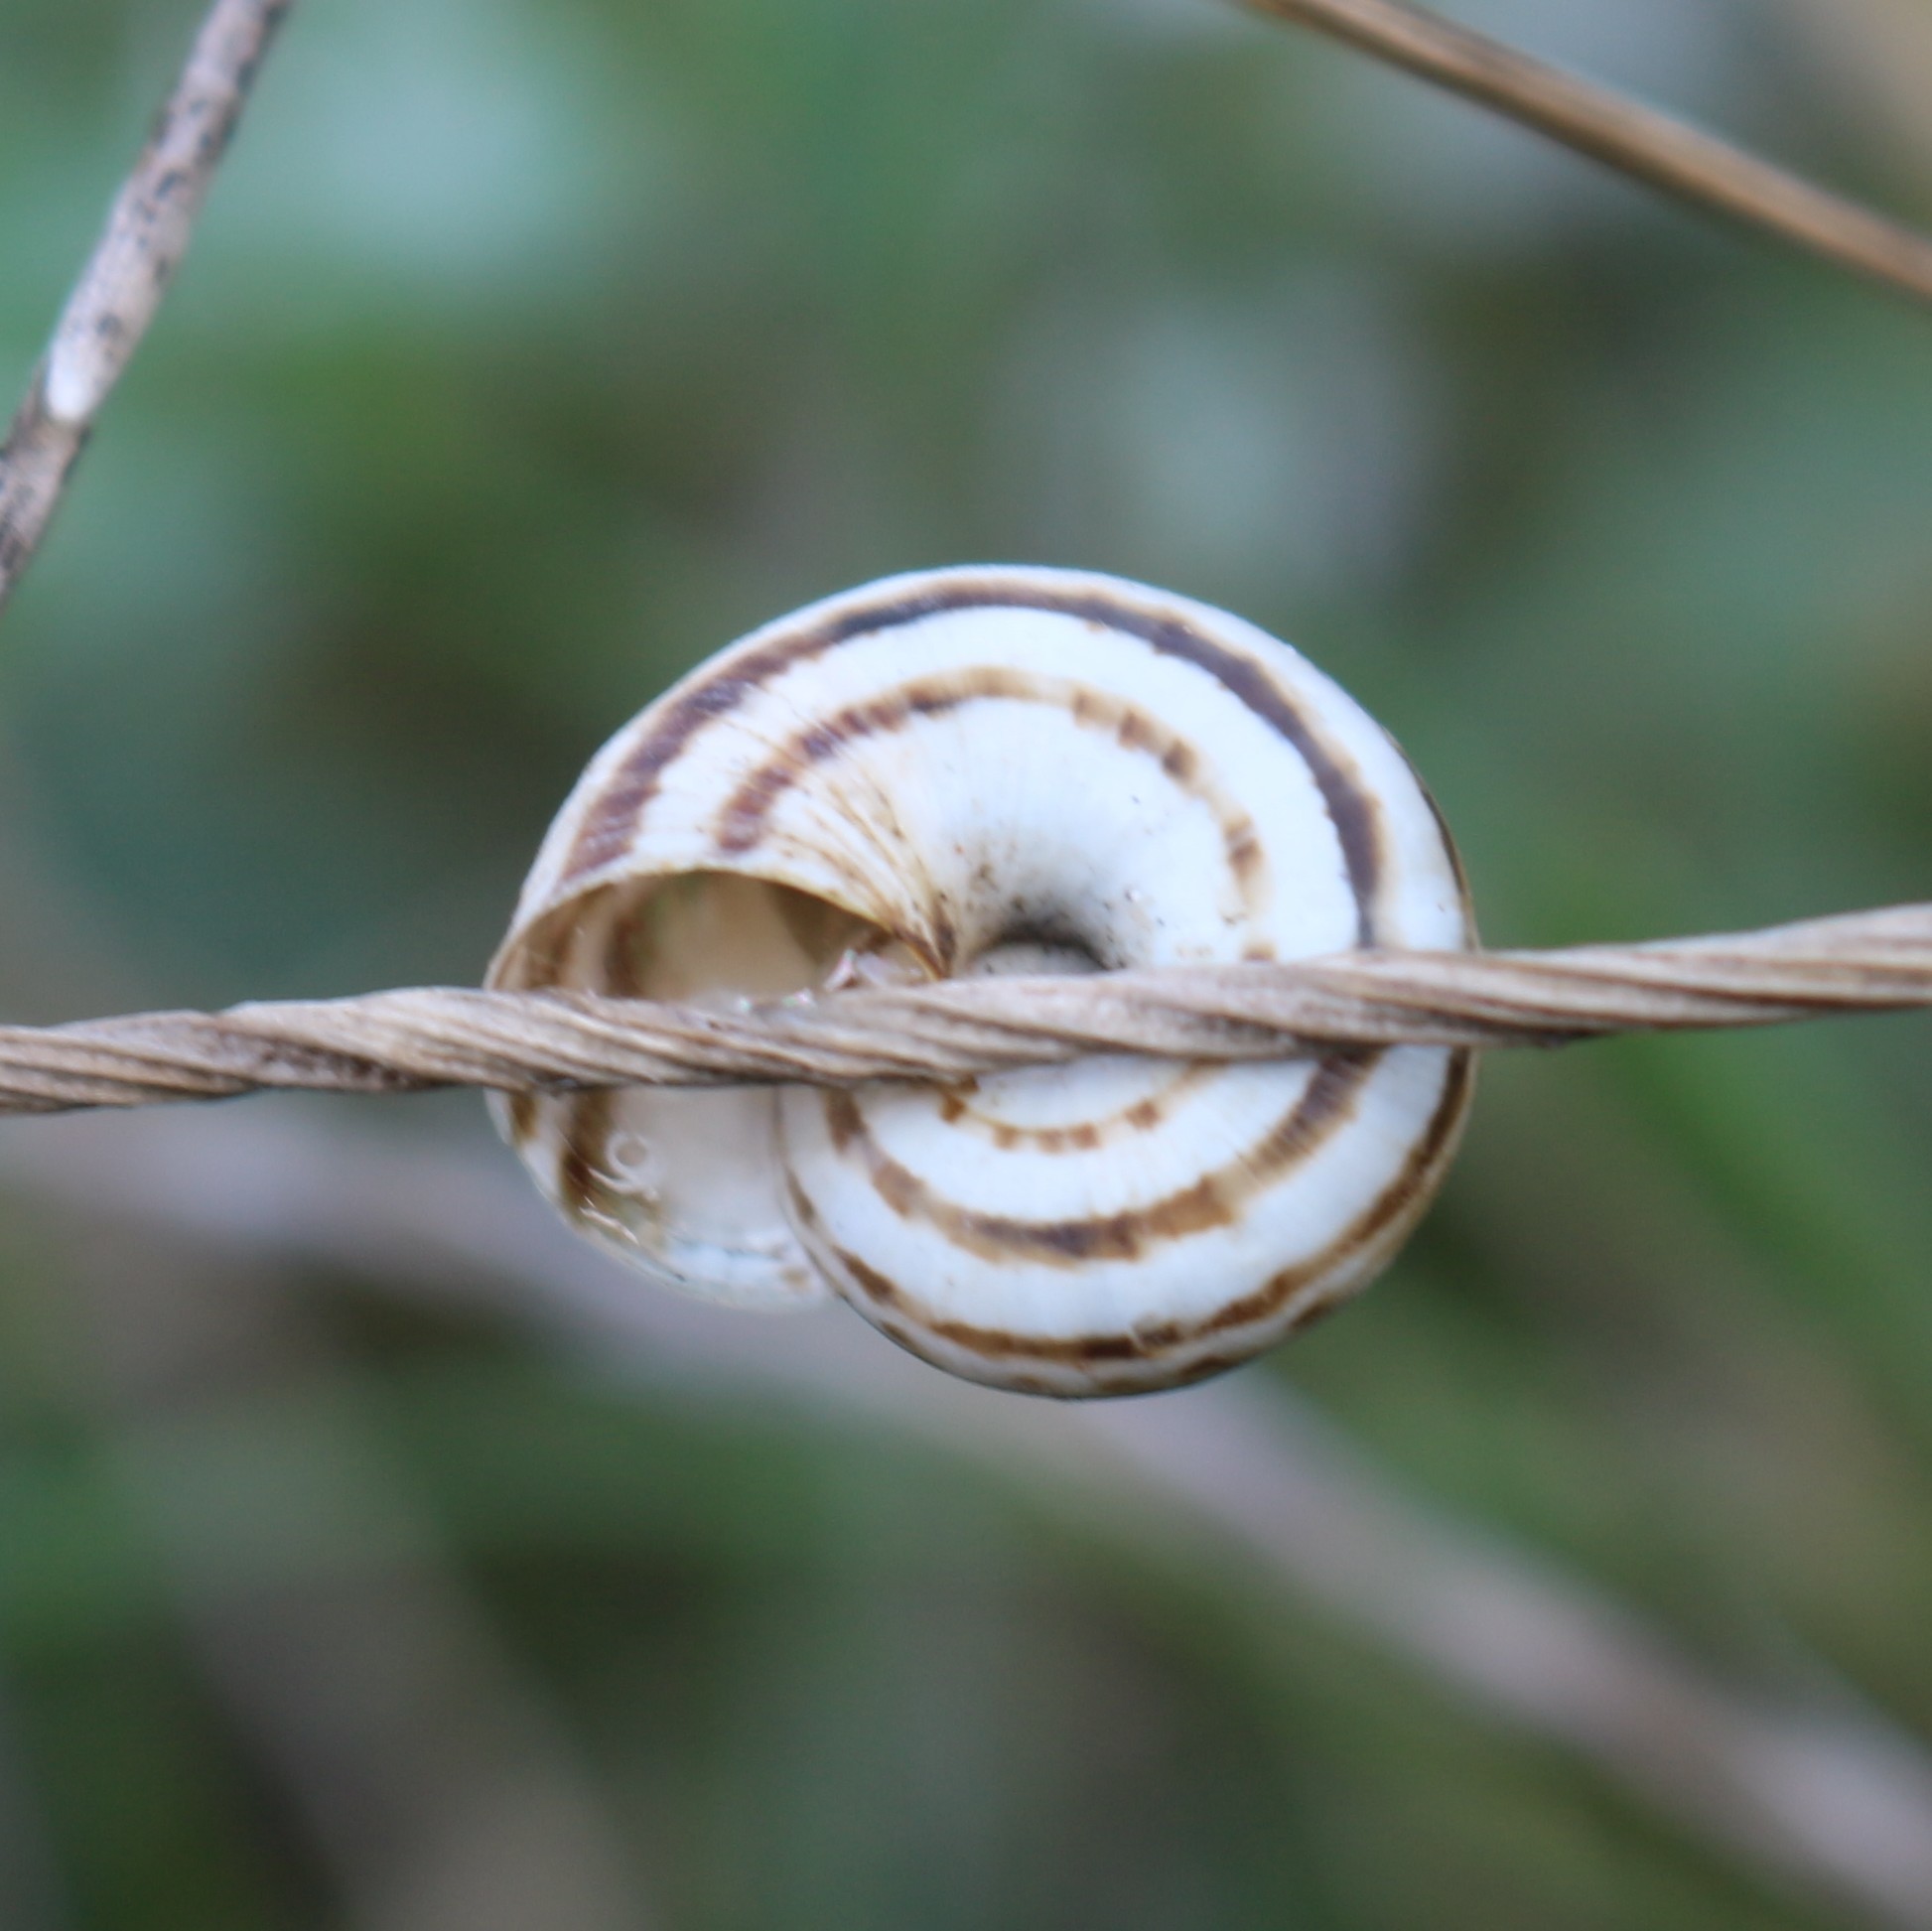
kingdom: Animalia
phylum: Mollusca
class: Gastropoda
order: Stylommatophora
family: Geomitridae
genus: Xeropicta
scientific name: Xeropicta derbentina
